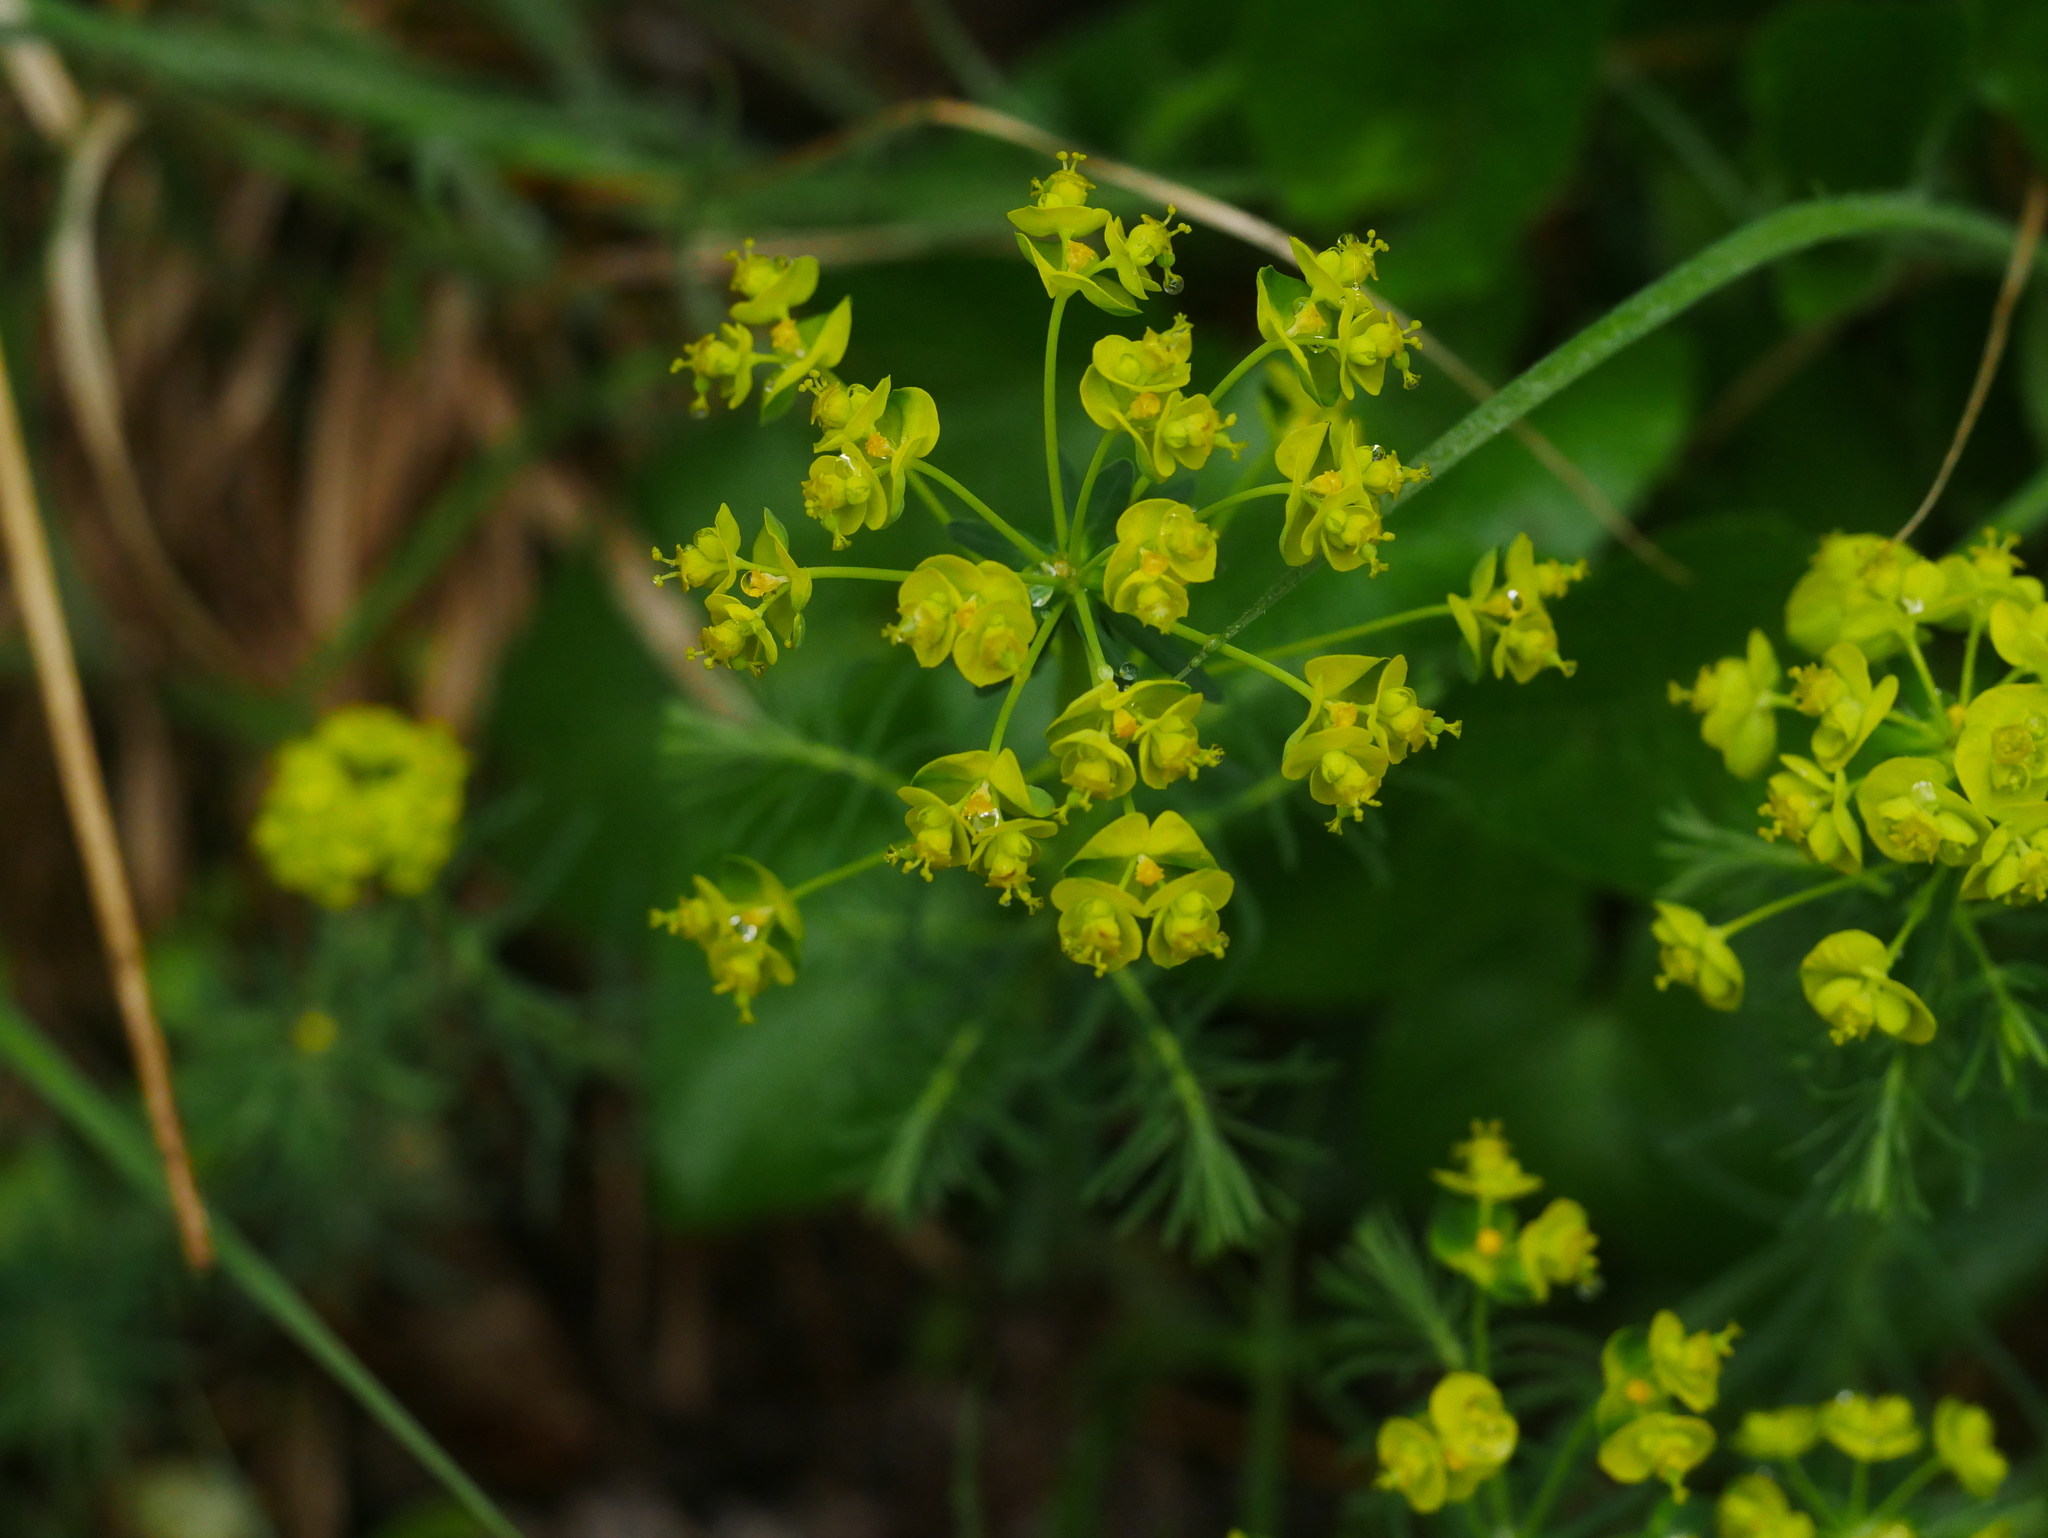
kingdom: Plantae
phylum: Tracheophyta
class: Magnoliopsida
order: Malpighiales
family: Euphorbiaceae
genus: Euphorbia
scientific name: Euphorbia cyparissias
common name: Cypress spurge
